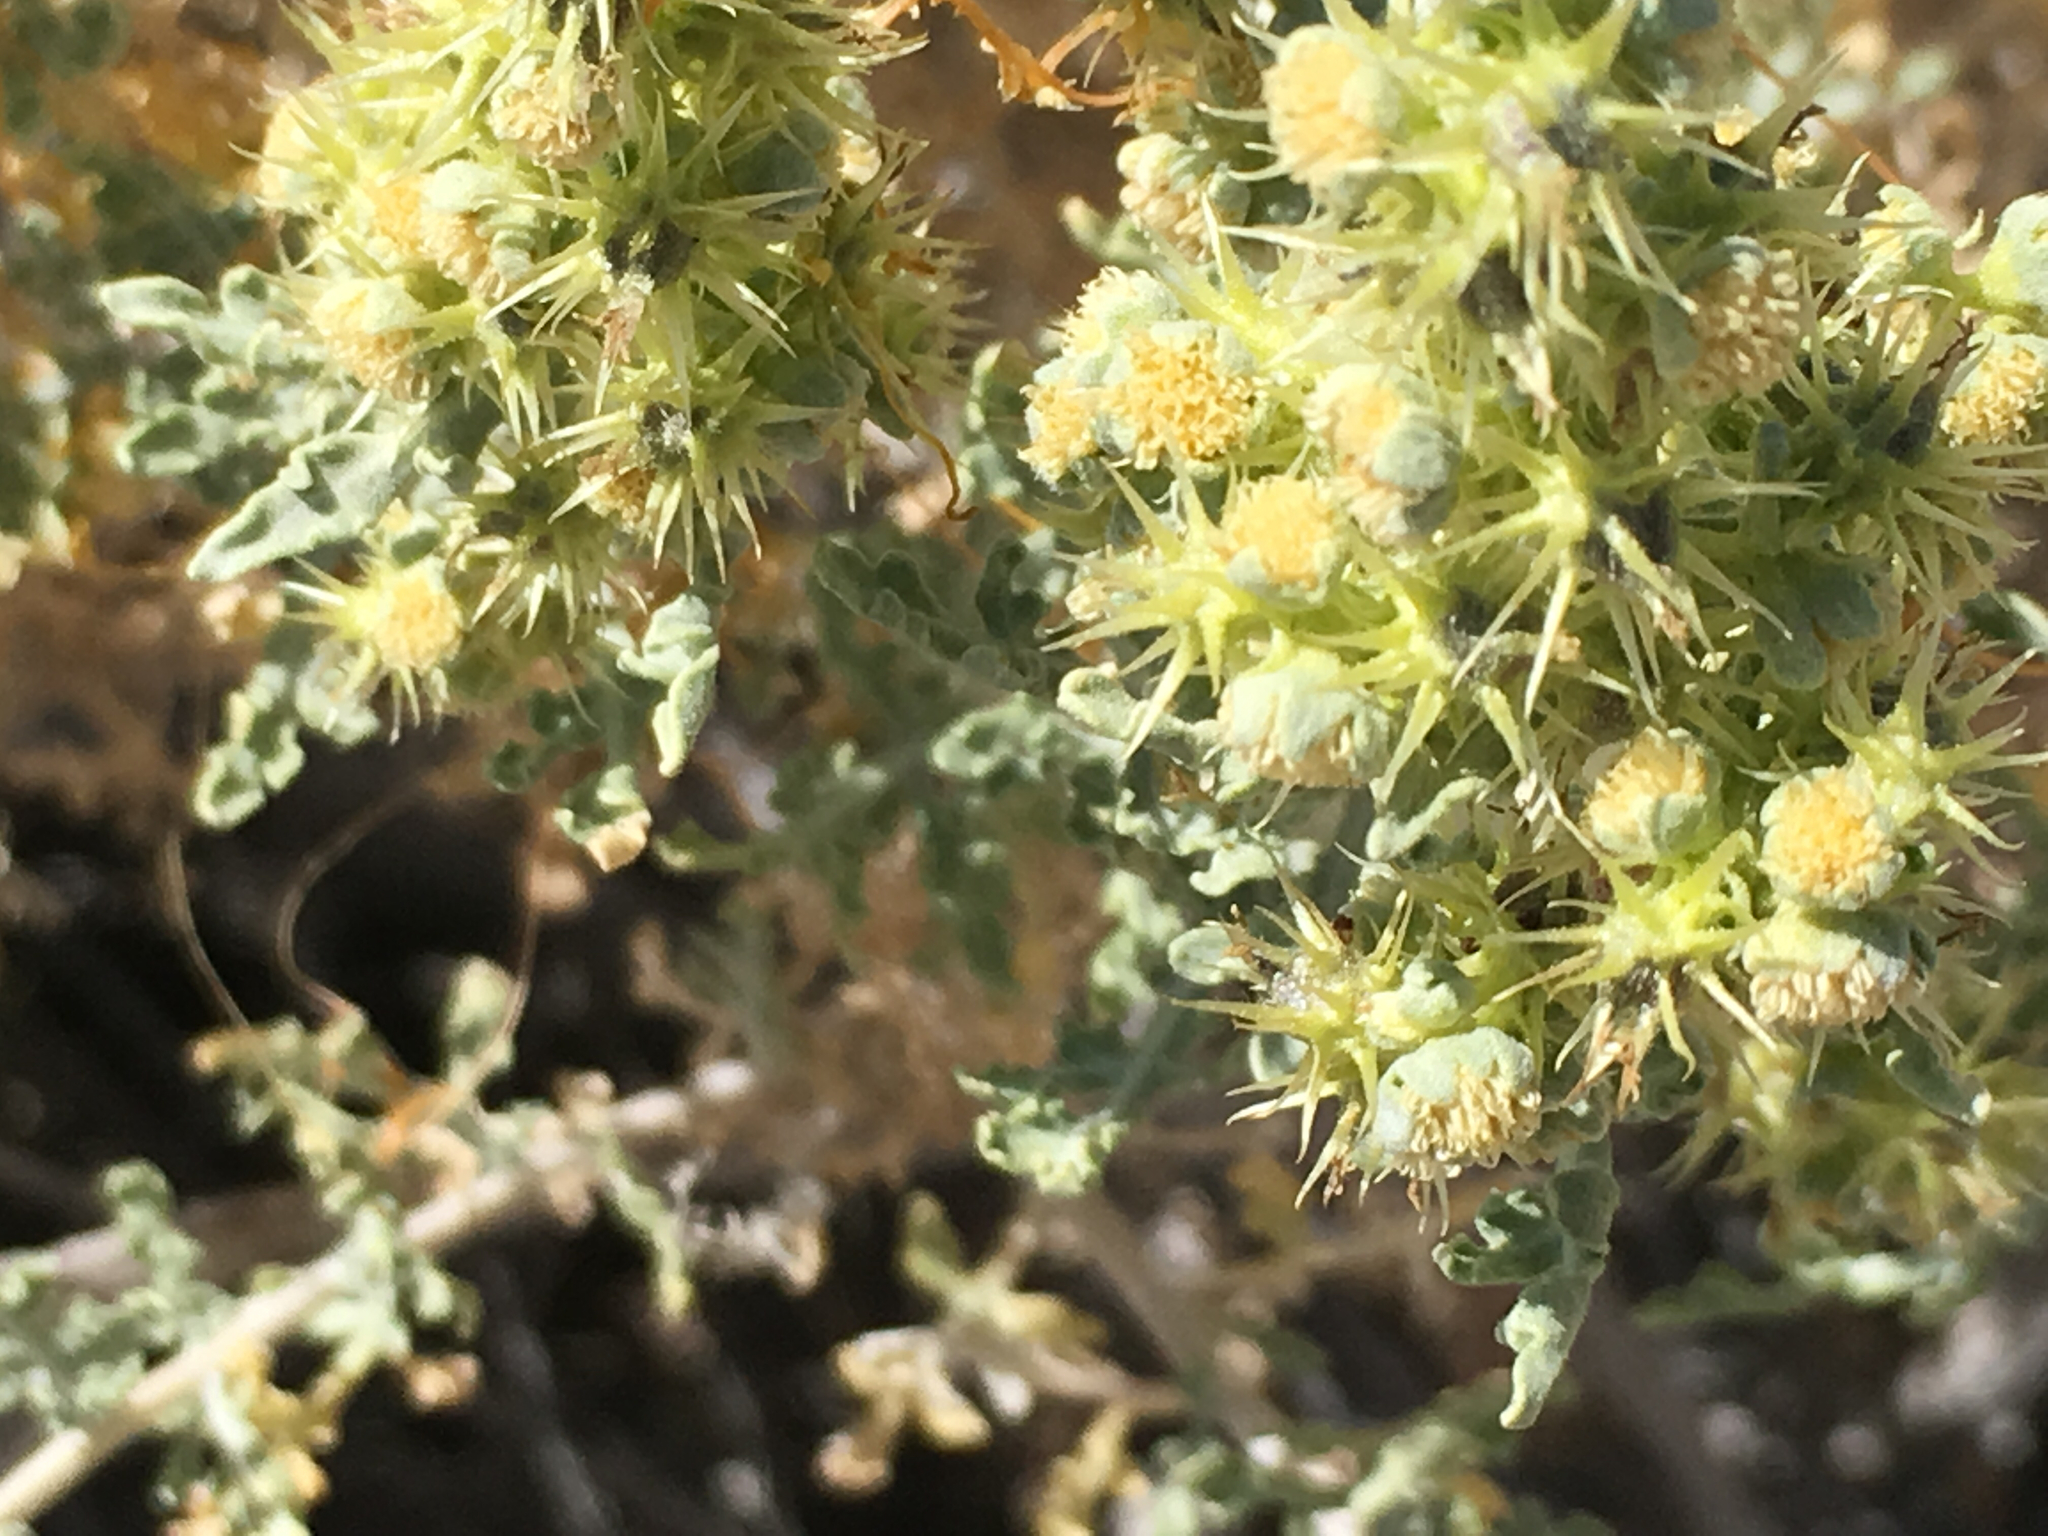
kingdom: Plantae
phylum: Tracheophyta
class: Magnoliopsida
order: Asterales
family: Asteraceae
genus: Ambrosia
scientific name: Ambrosia dumosa
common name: Bur-sage
